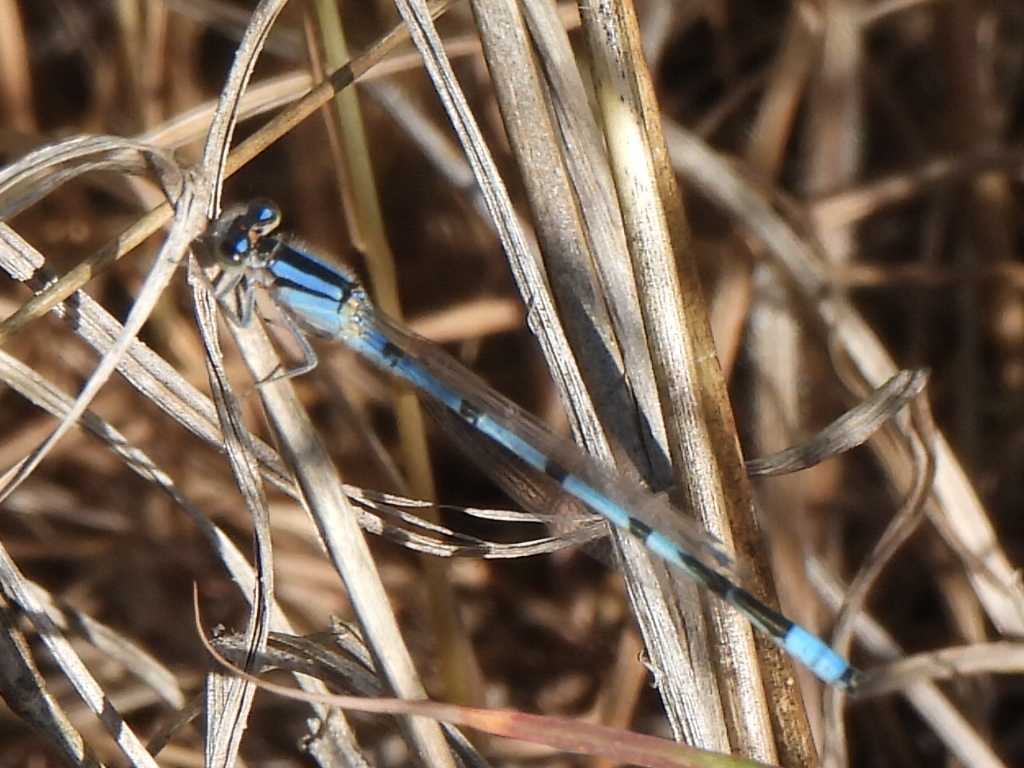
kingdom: Animalia
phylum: Arthropoda
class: Insecta
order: Odonata
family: Coenagrionidae
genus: Enallagma
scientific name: Enallagma civile
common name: Damselfly
